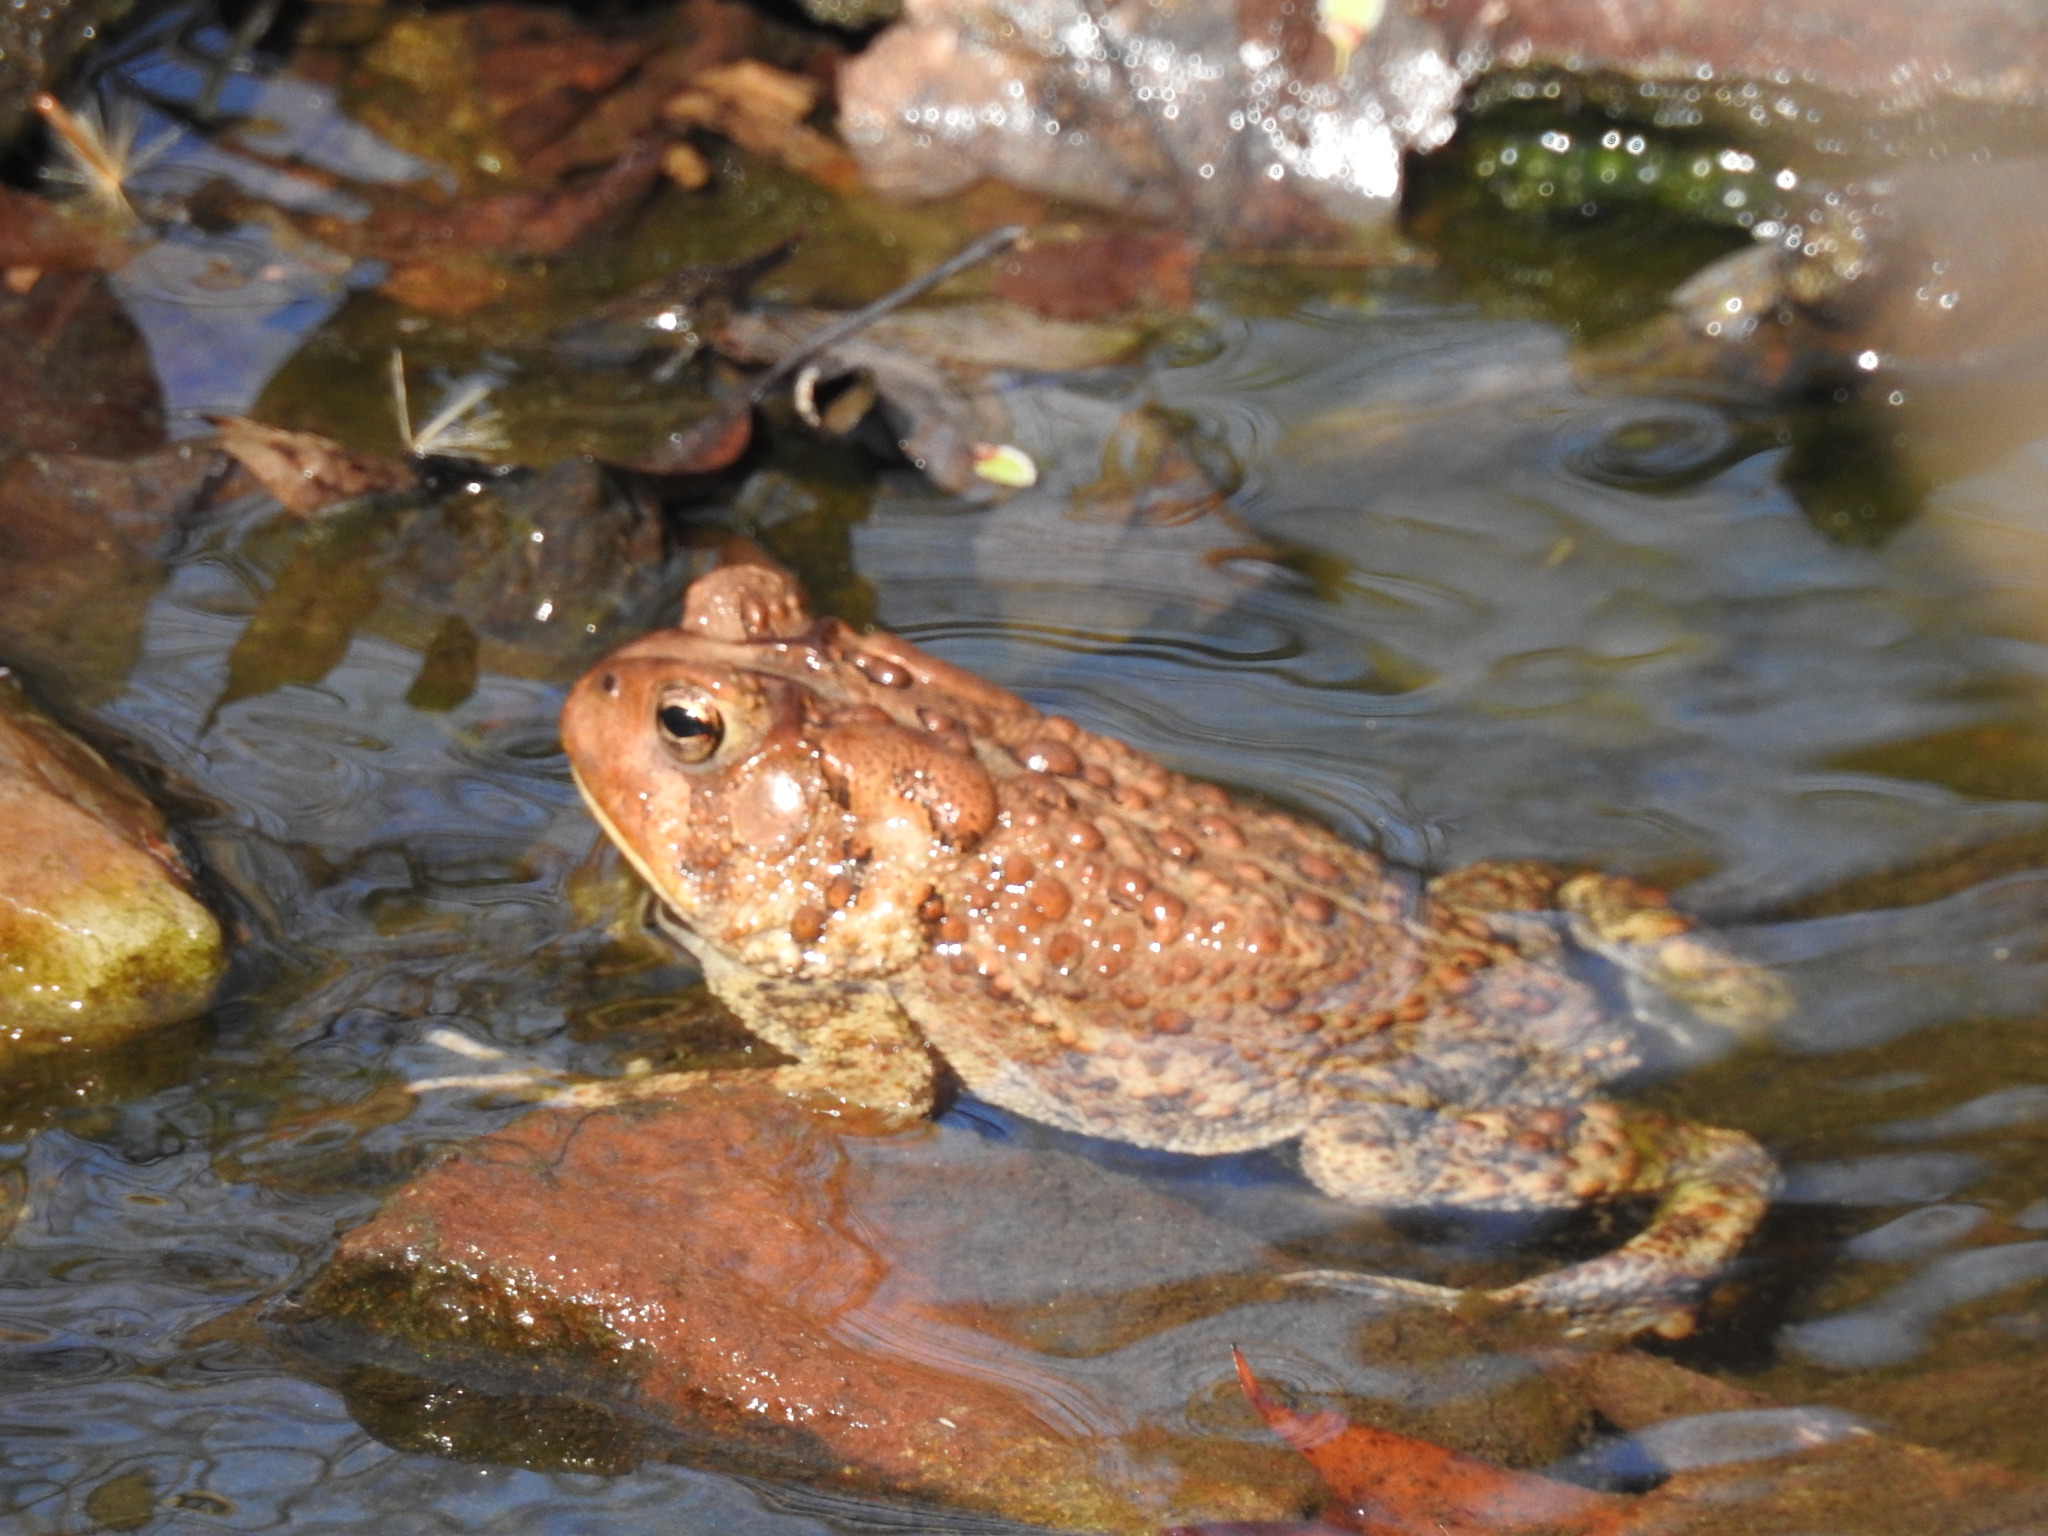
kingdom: Animalia
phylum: Chordata
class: Amphibia
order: Anura
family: Bufonidae
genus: Anaxyrus
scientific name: Anaxyrus americanus
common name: American toad
